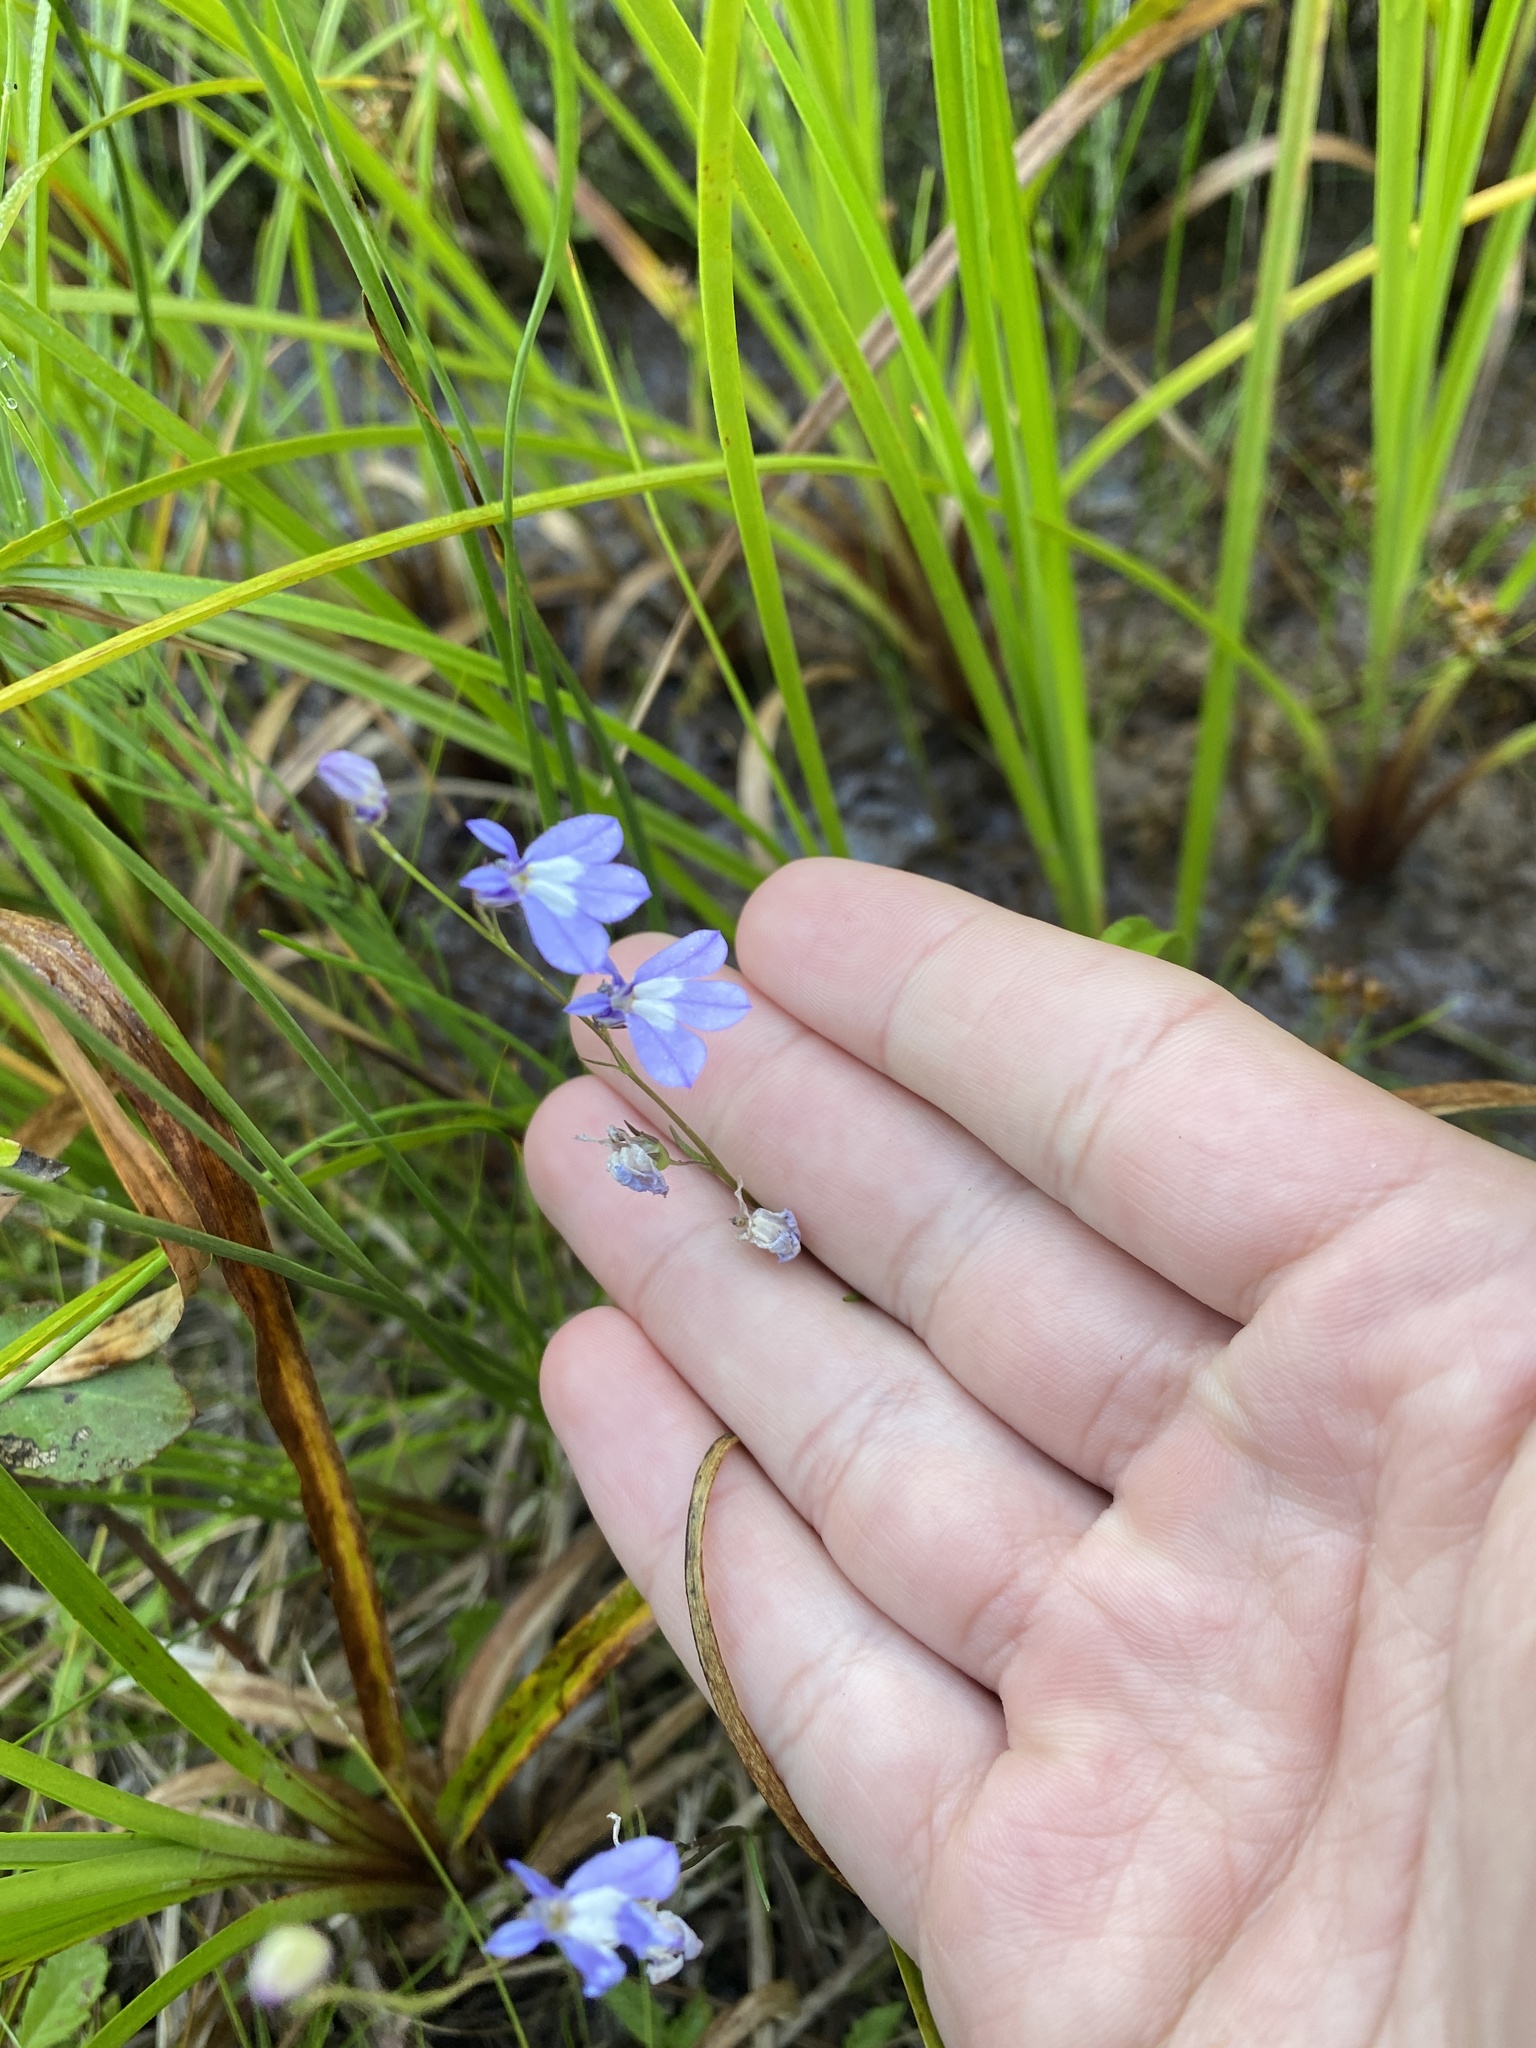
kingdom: Plantae
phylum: Tracheophyta
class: Magnoliopsida
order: Asterales
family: Campanulaceae
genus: Lobelia
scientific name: Lobelia kalmii
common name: Kalm's lobelia
